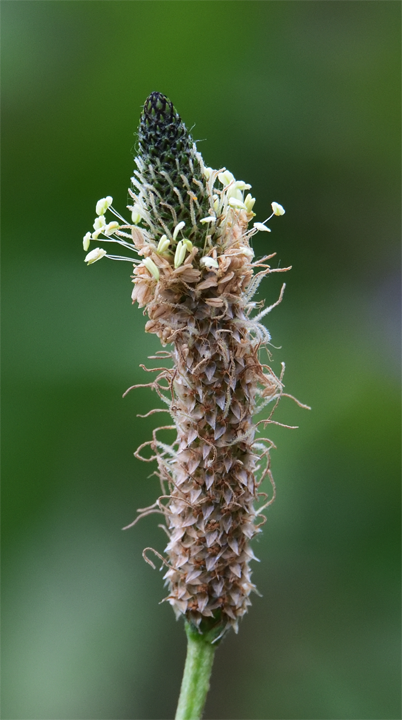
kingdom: Plantae
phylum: Tracheophyta
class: Magnoliopsida
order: Lamiales
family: Plantaginaceae
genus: Plantago
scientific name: Plantago lanceolata
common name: Ribwort plantain
